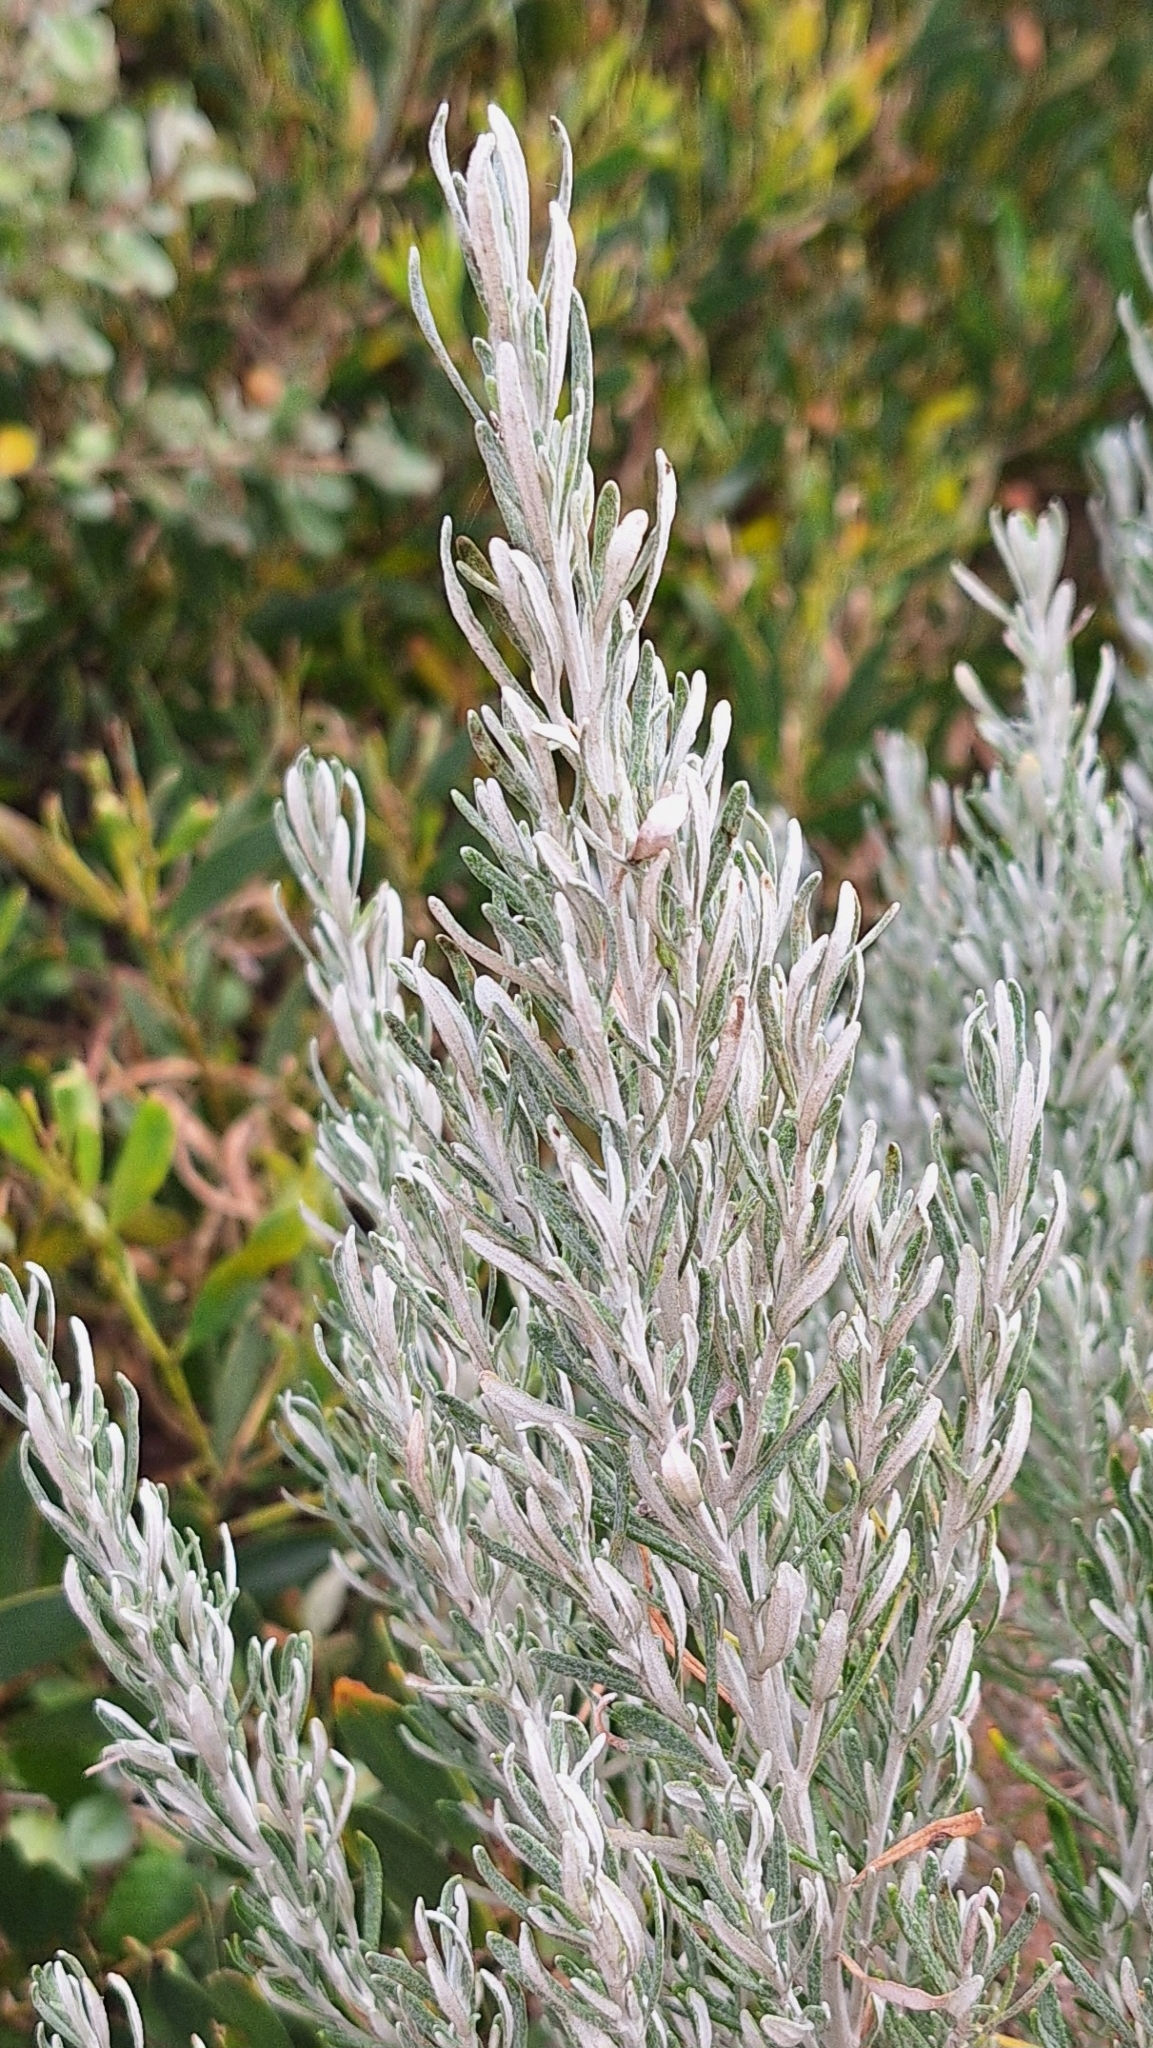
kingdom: Plantae
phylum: Tracheophyta
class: Magnoliopsida
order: Asterales
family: Asteraceae
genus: Olearia
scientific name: Olearia axillaris
